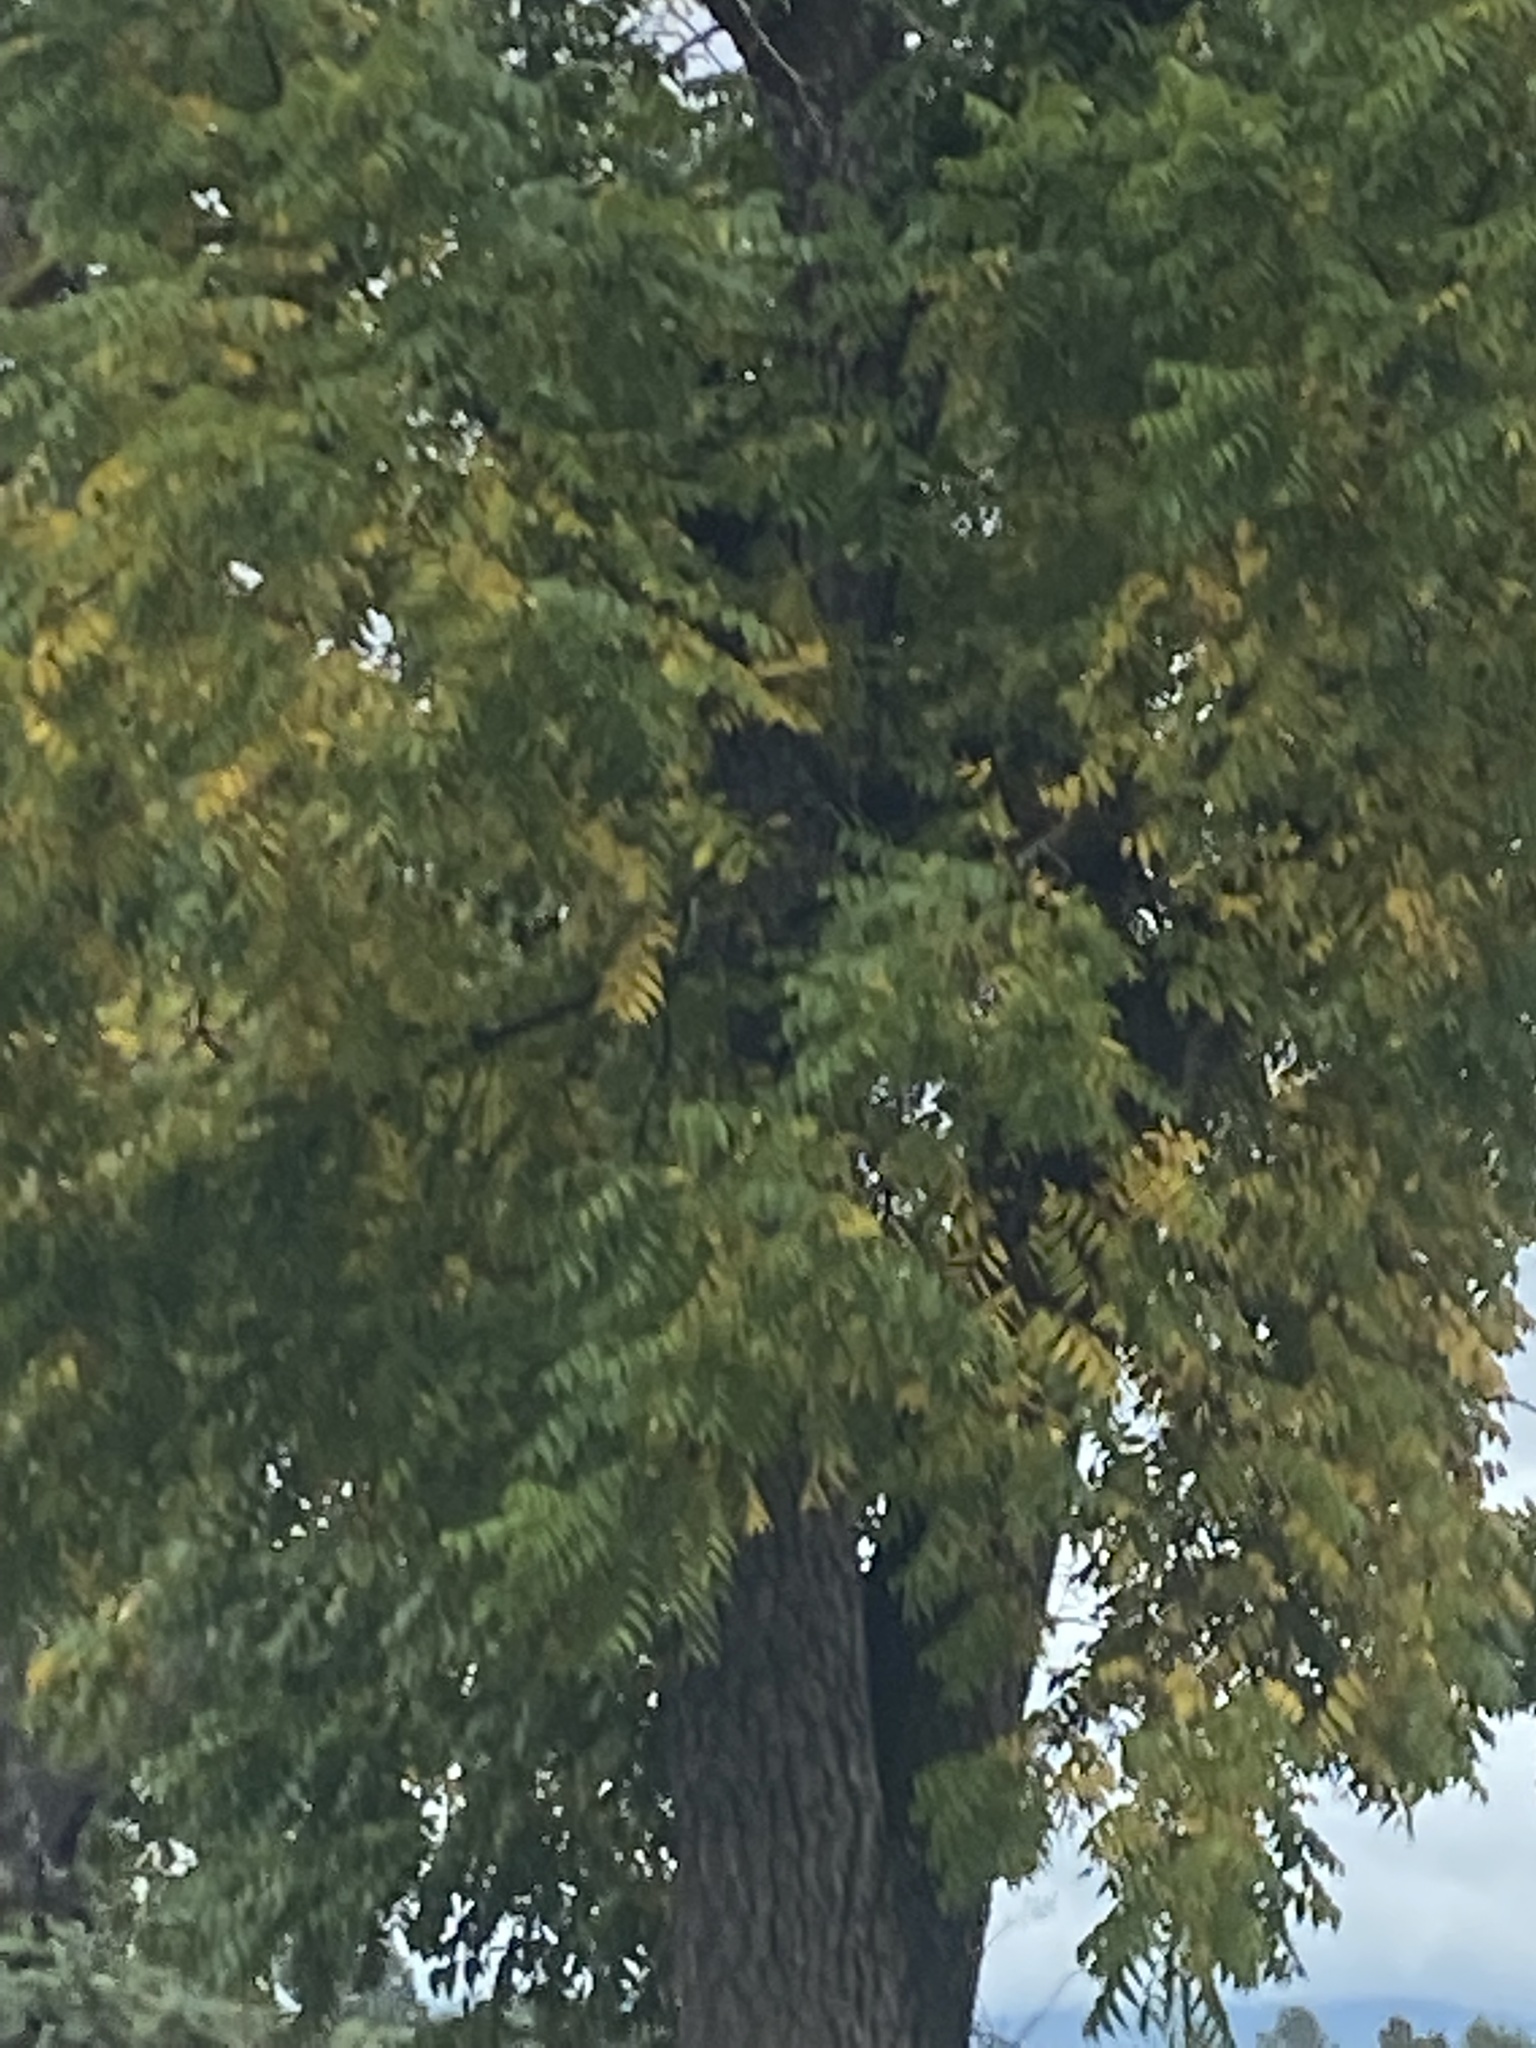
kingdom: Plantae
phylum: Tracheophyta
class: Magnoliopsida
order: Fagales
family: Juglandaceae
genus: Juglans
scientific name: Juglans nigra
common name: Black walnut
